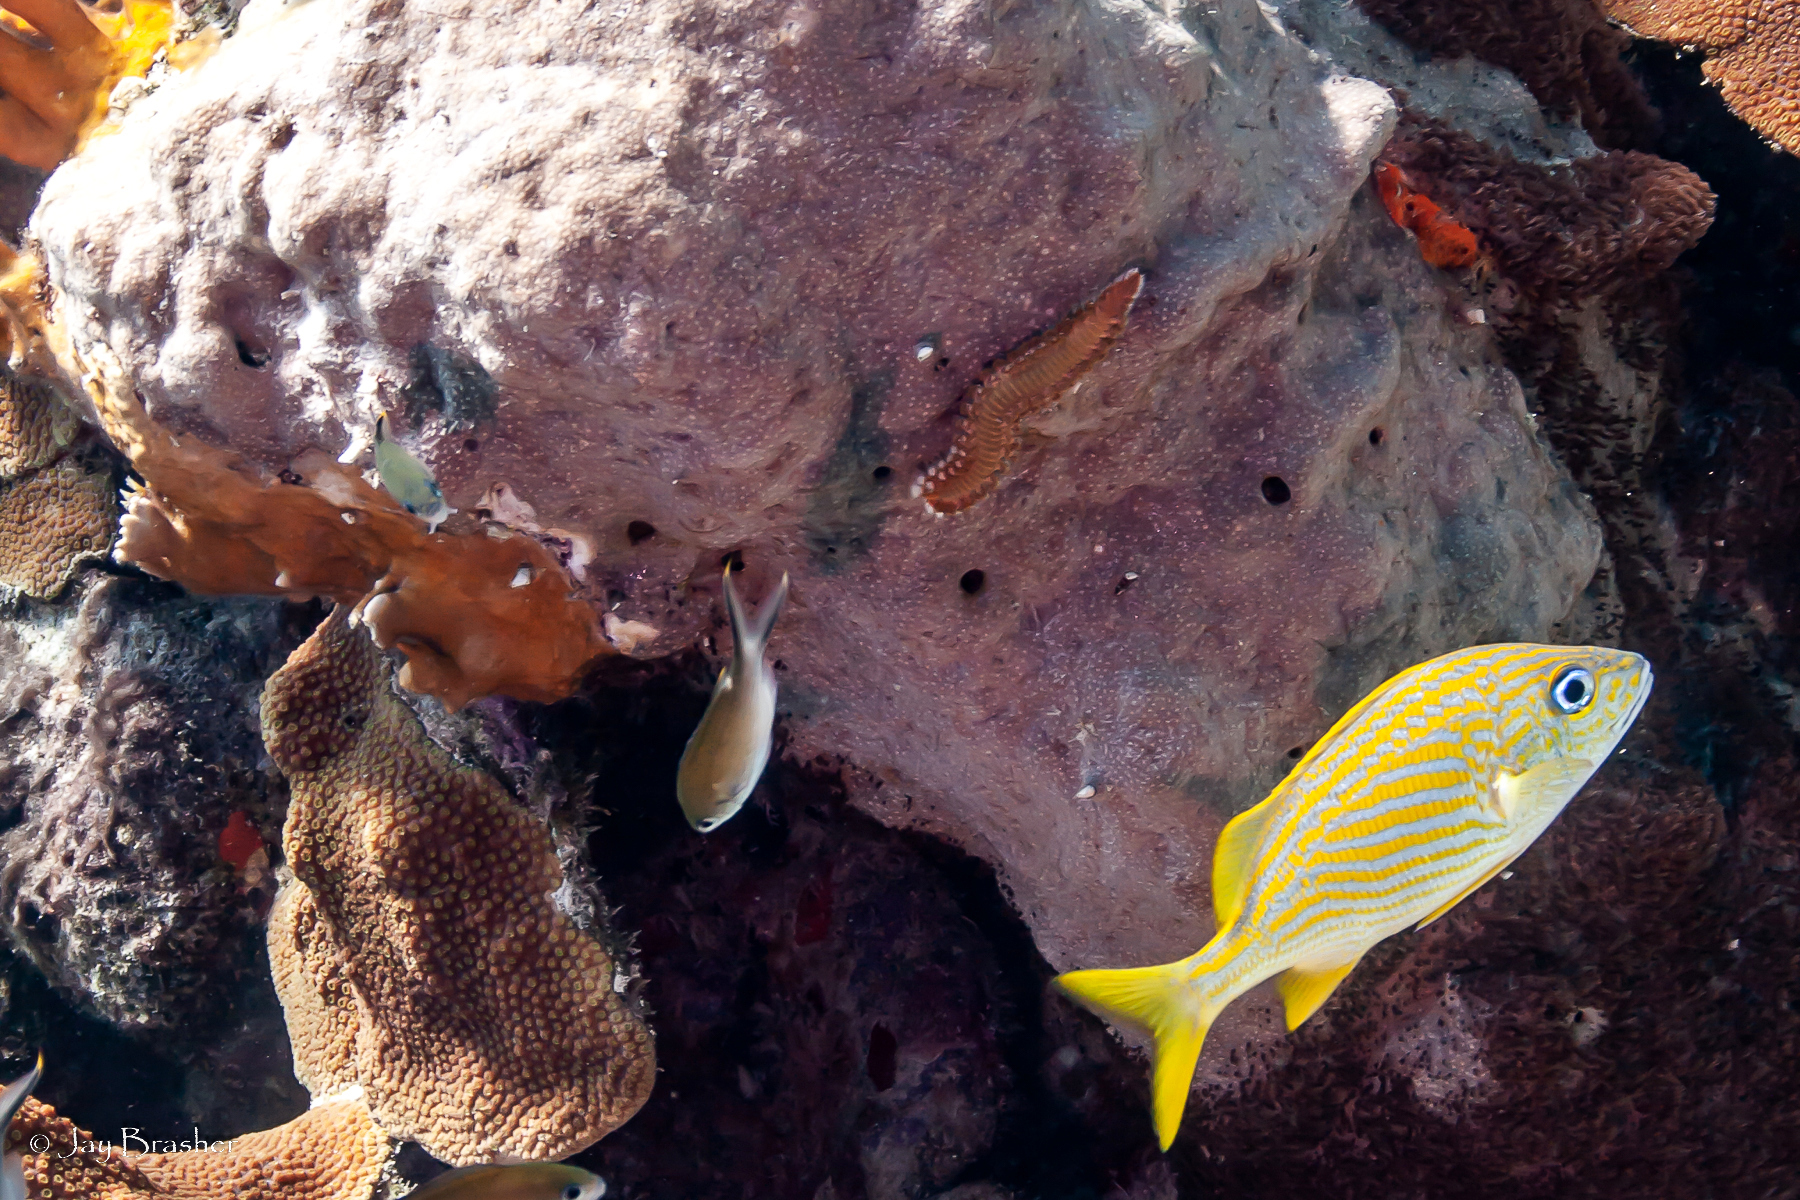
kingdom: Animalia
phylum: Annelida
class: Polychaeta
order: Amphinomida
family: Amphinomidae
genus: Hermodice
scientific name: Hermodice carunculata
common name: Bearded fireworm
